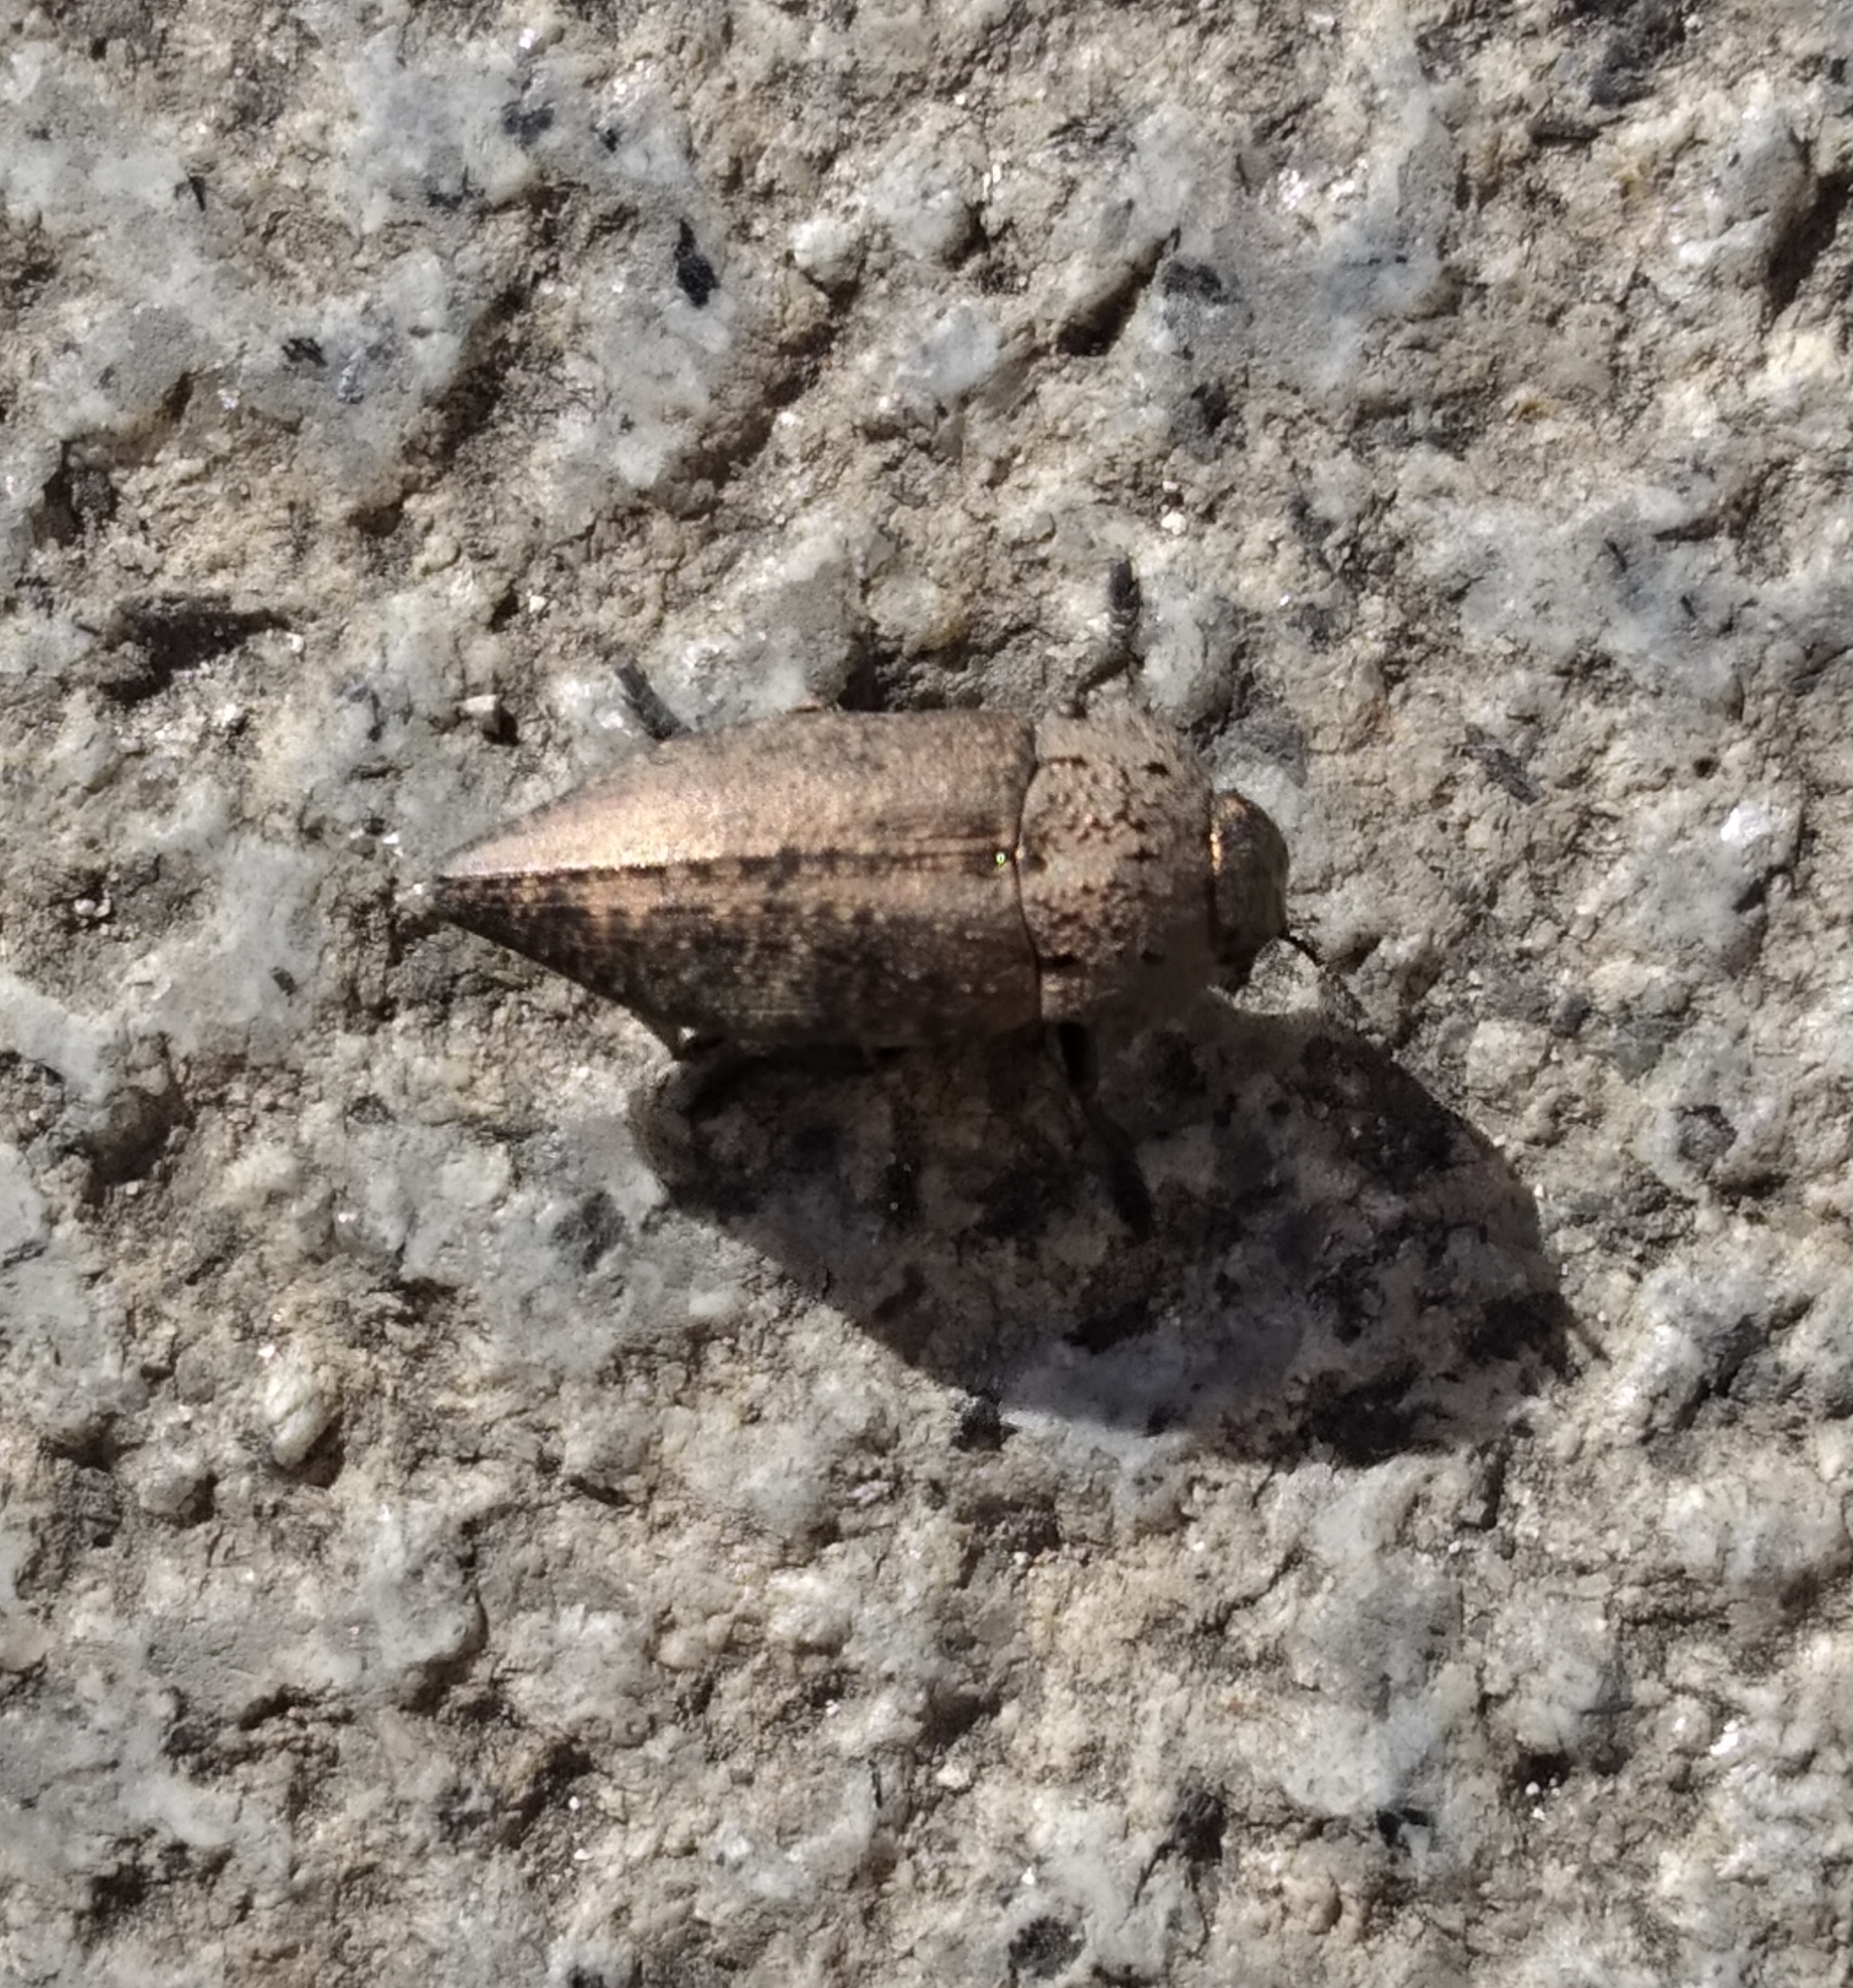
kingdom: Animalia
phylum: Arthropoda
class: Insecta
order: Coleoptera
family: Buprestidae
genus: Capnodis
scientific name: Capnodis tenebricosa
